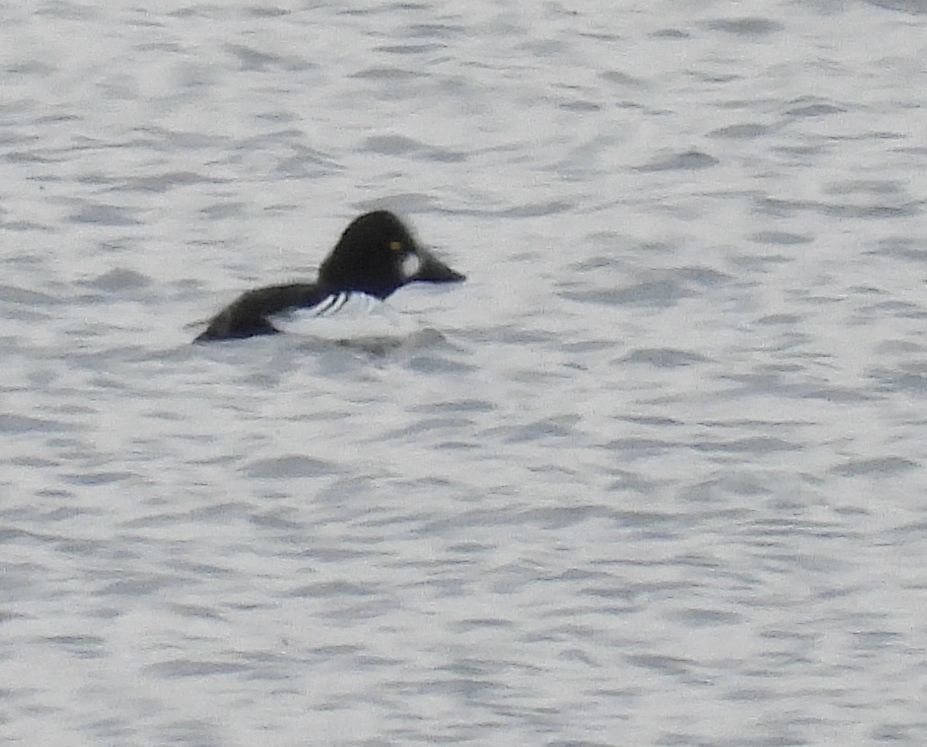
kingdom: Animalia
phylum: Chordata
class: Aves
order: Anseriformes
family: Anatidae
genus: Bucephala
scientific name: Bucephala clangula
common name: Common goldeneye
